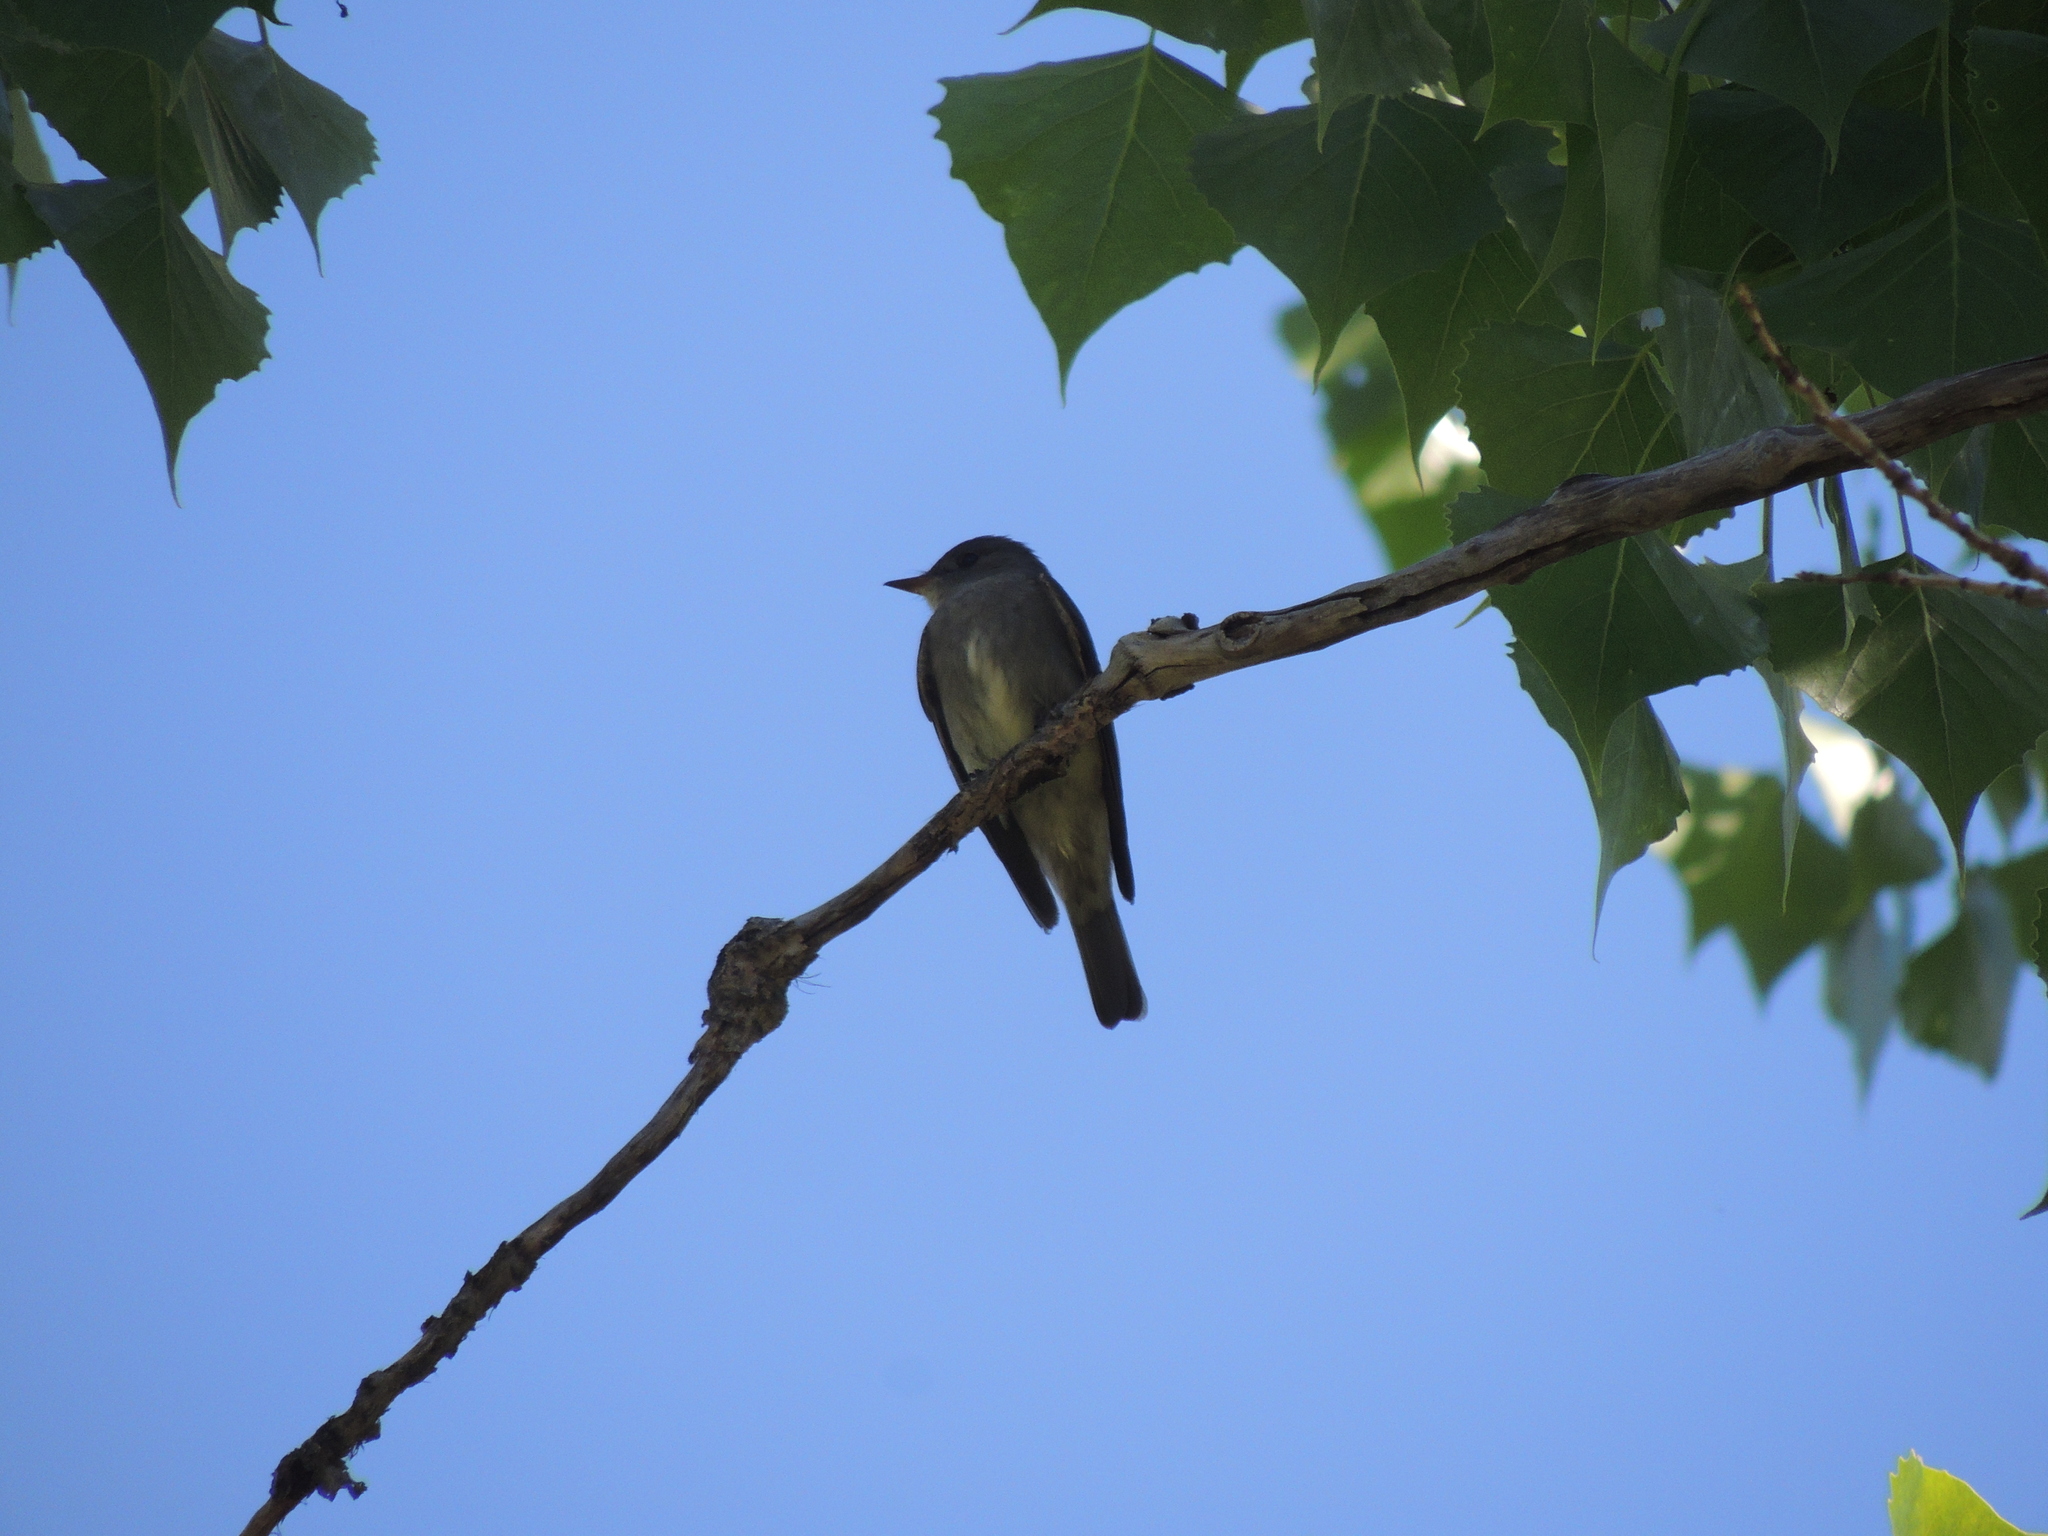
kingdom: Animalia
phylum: Chordata
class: Aves
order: Passeriformes
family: Tyrannidae
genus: Contopus
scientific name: Contopus sordidulus
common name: Western wood-pewee
